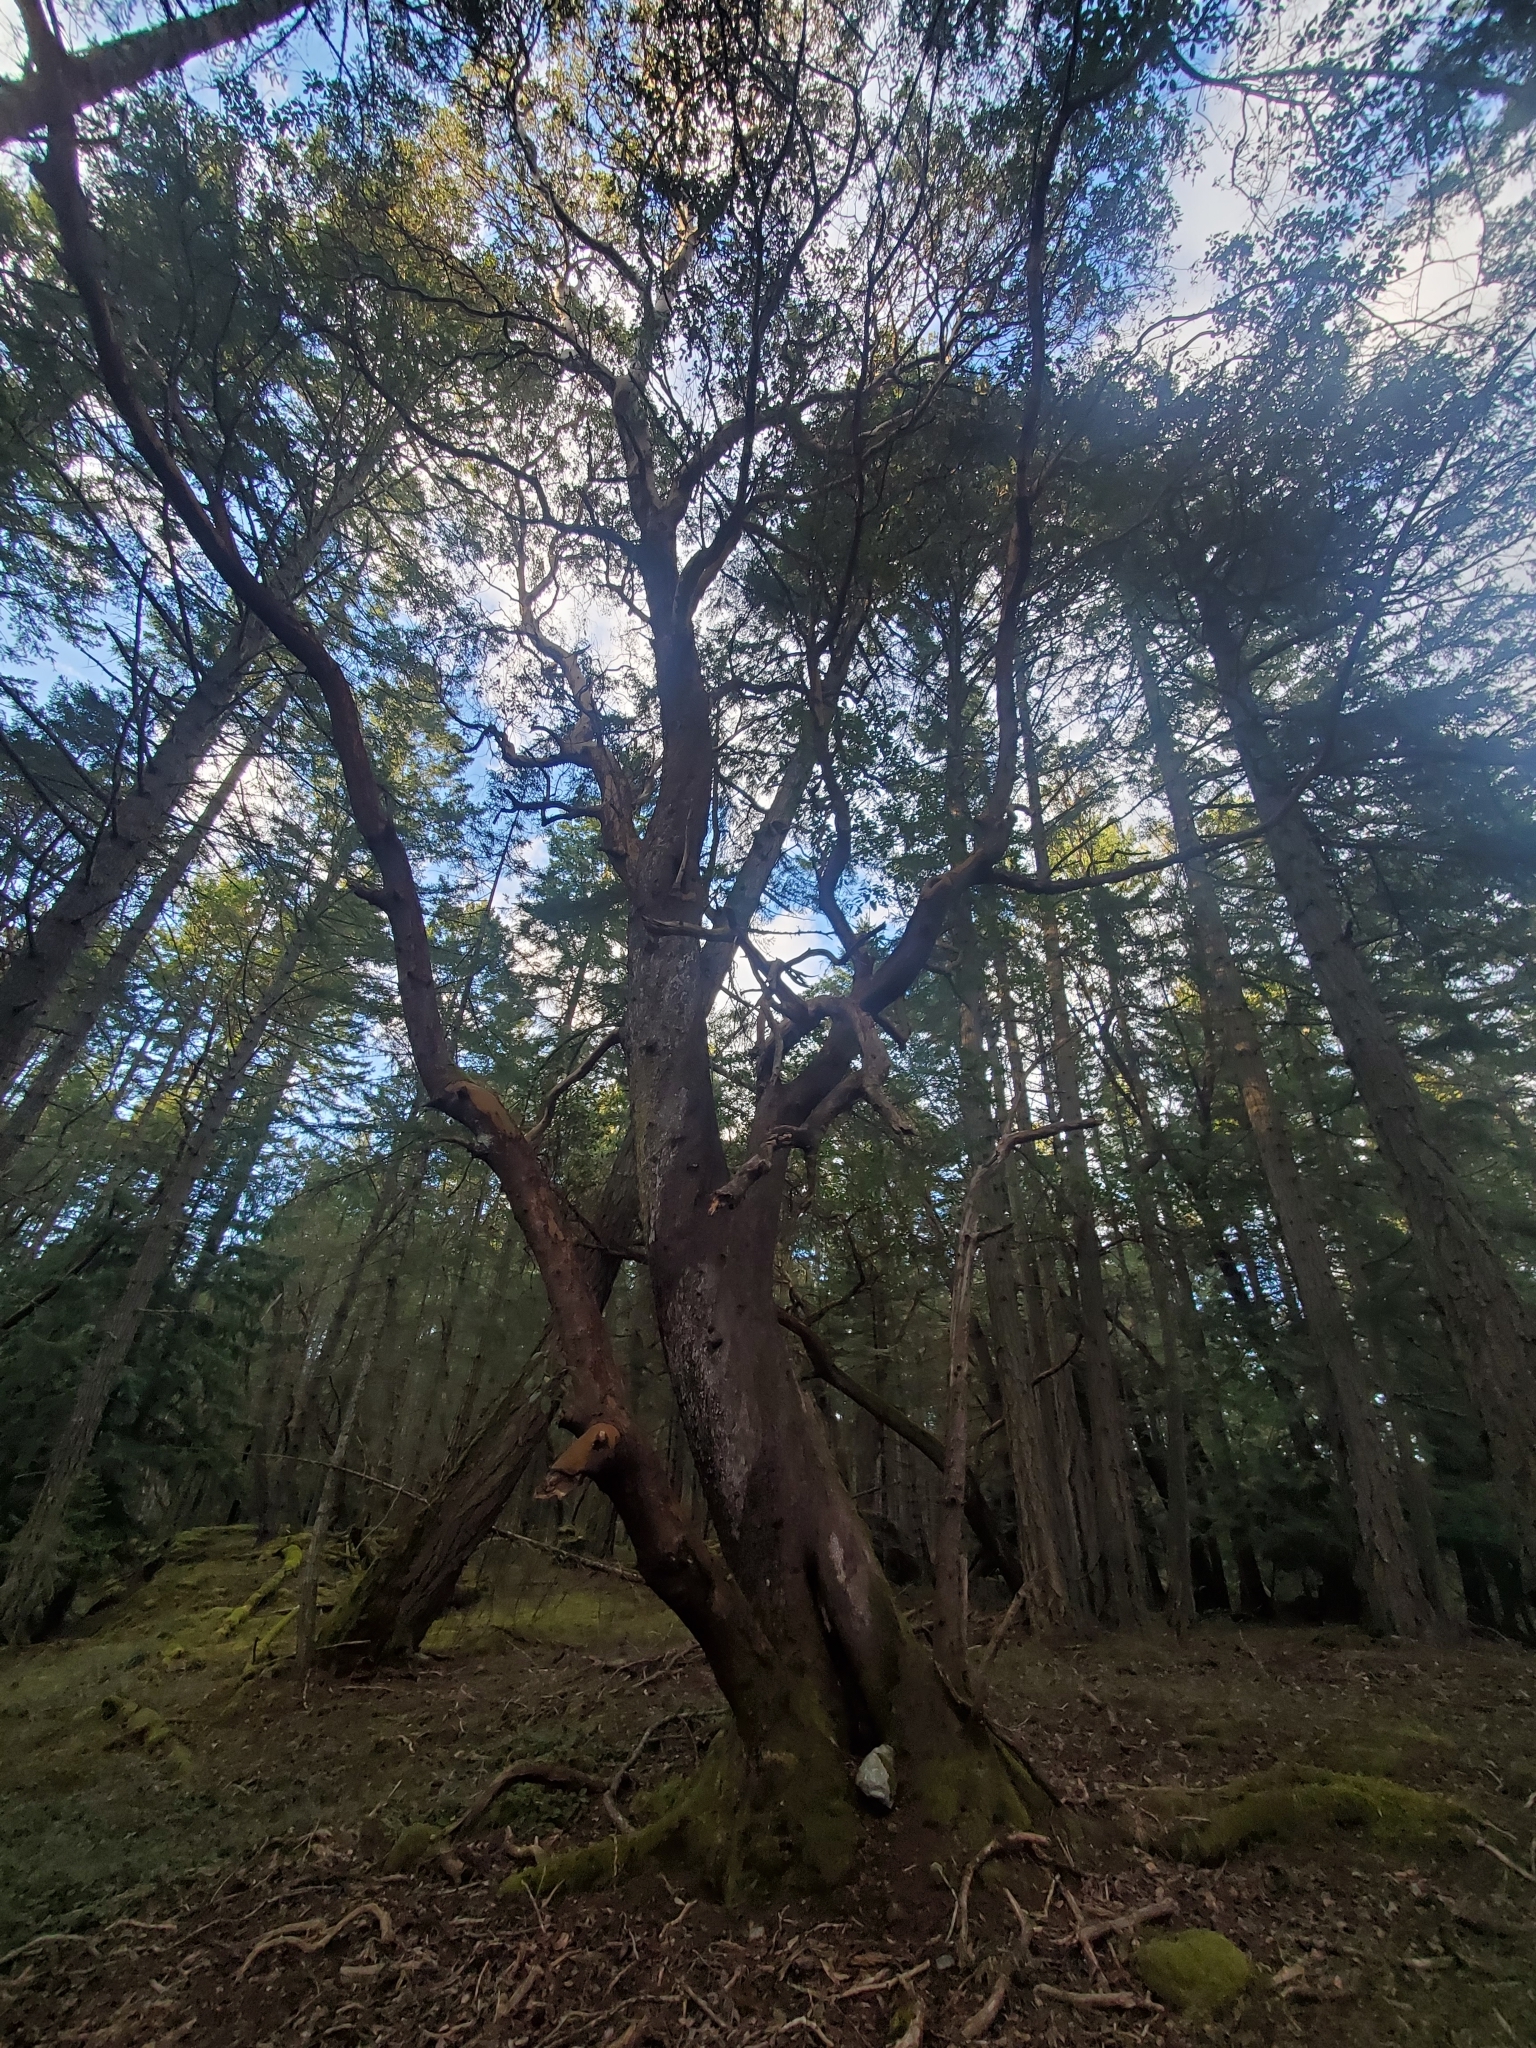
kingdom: Plantae
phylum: Tracheophyta
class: Magnoliopsida
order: Ericales
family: Ericaceae
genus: Arbutus
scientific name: Arbutus menziesii
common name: Pacific madrone
